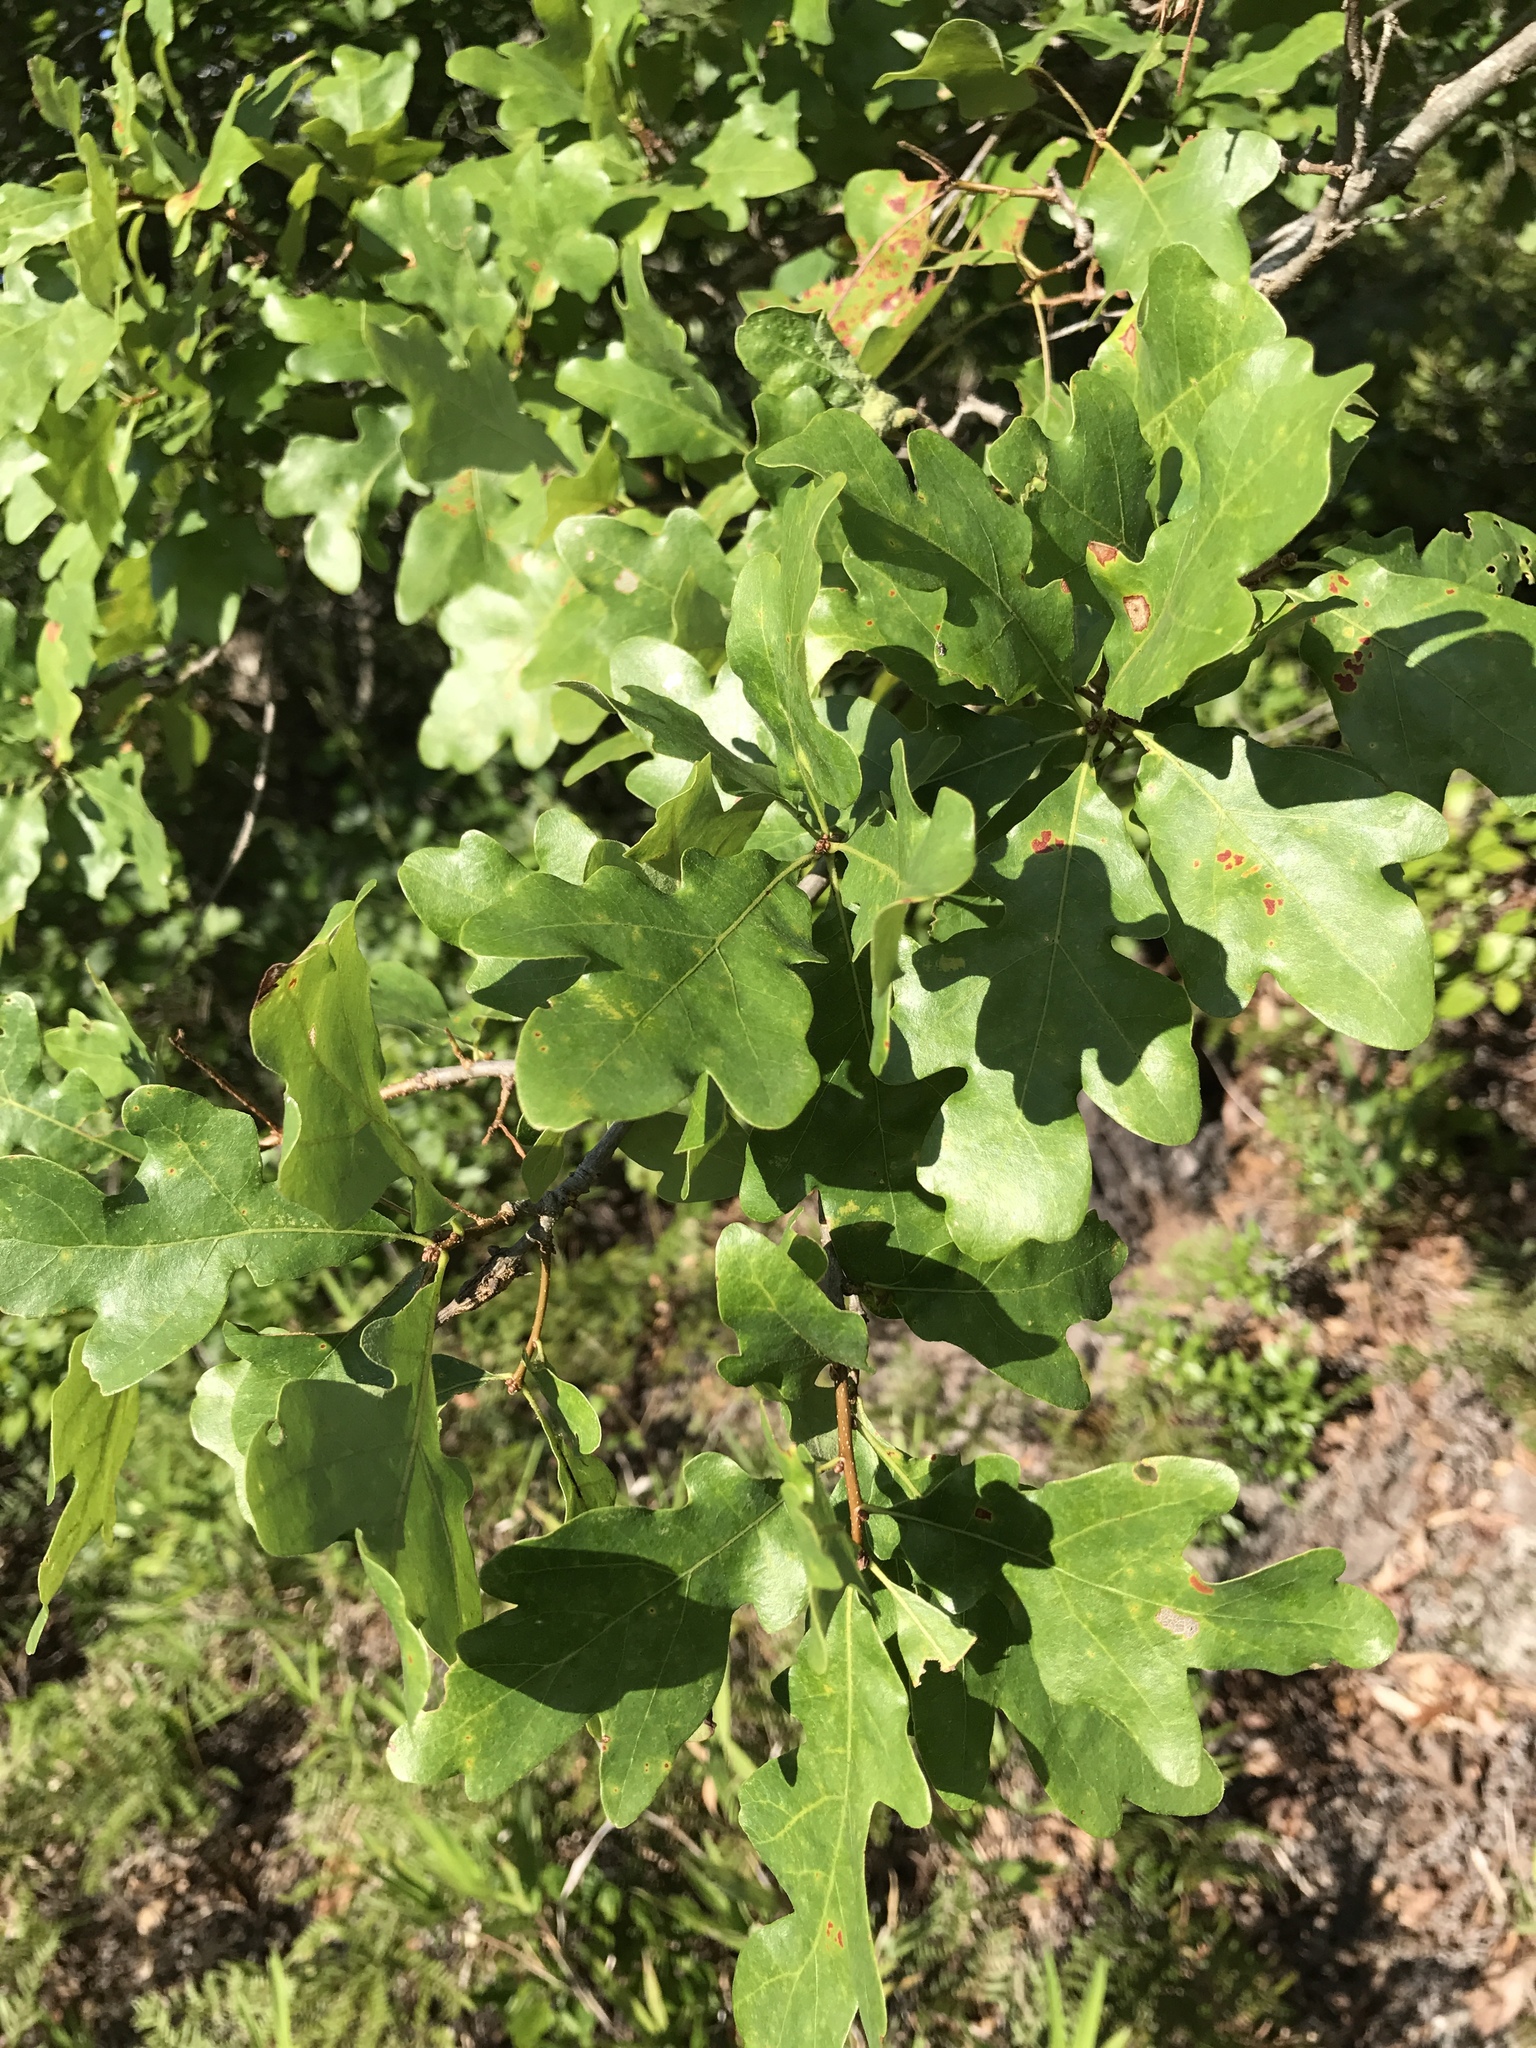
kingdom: Plantae
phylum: Tracheophyta
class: Magnoliopsida
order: Fagales
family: Fagaceae
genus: Quercus
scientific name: Quercus margaretiae
